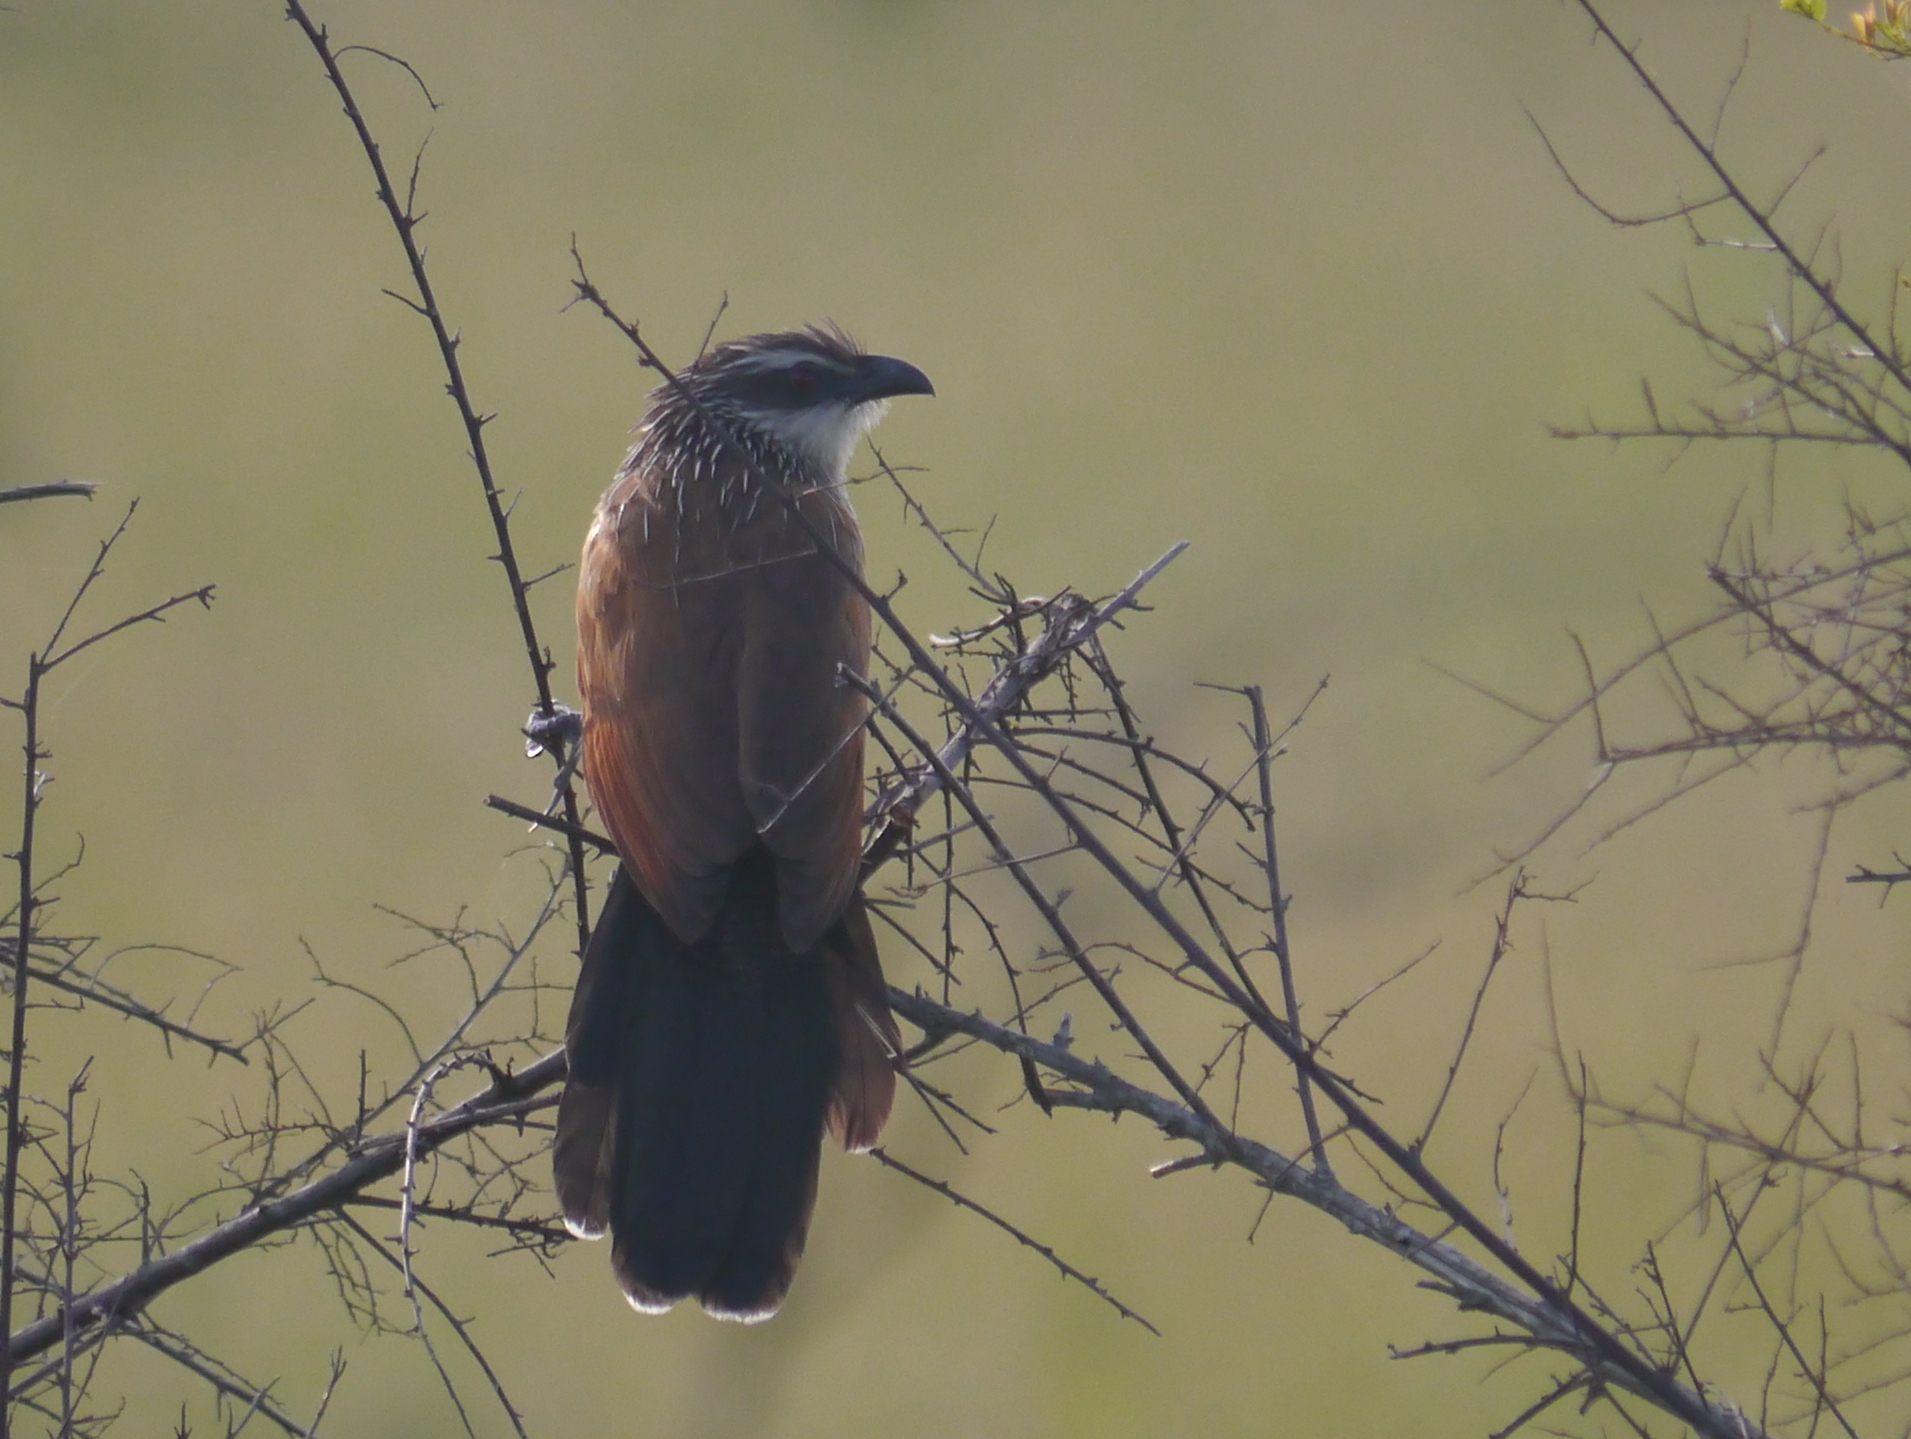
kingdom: Animalia
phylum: Chordata
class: Aves
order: Cuculiformes
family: Cuculidae
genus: Centropus
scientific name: Centropus superciliosus
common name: White-browed coucal
